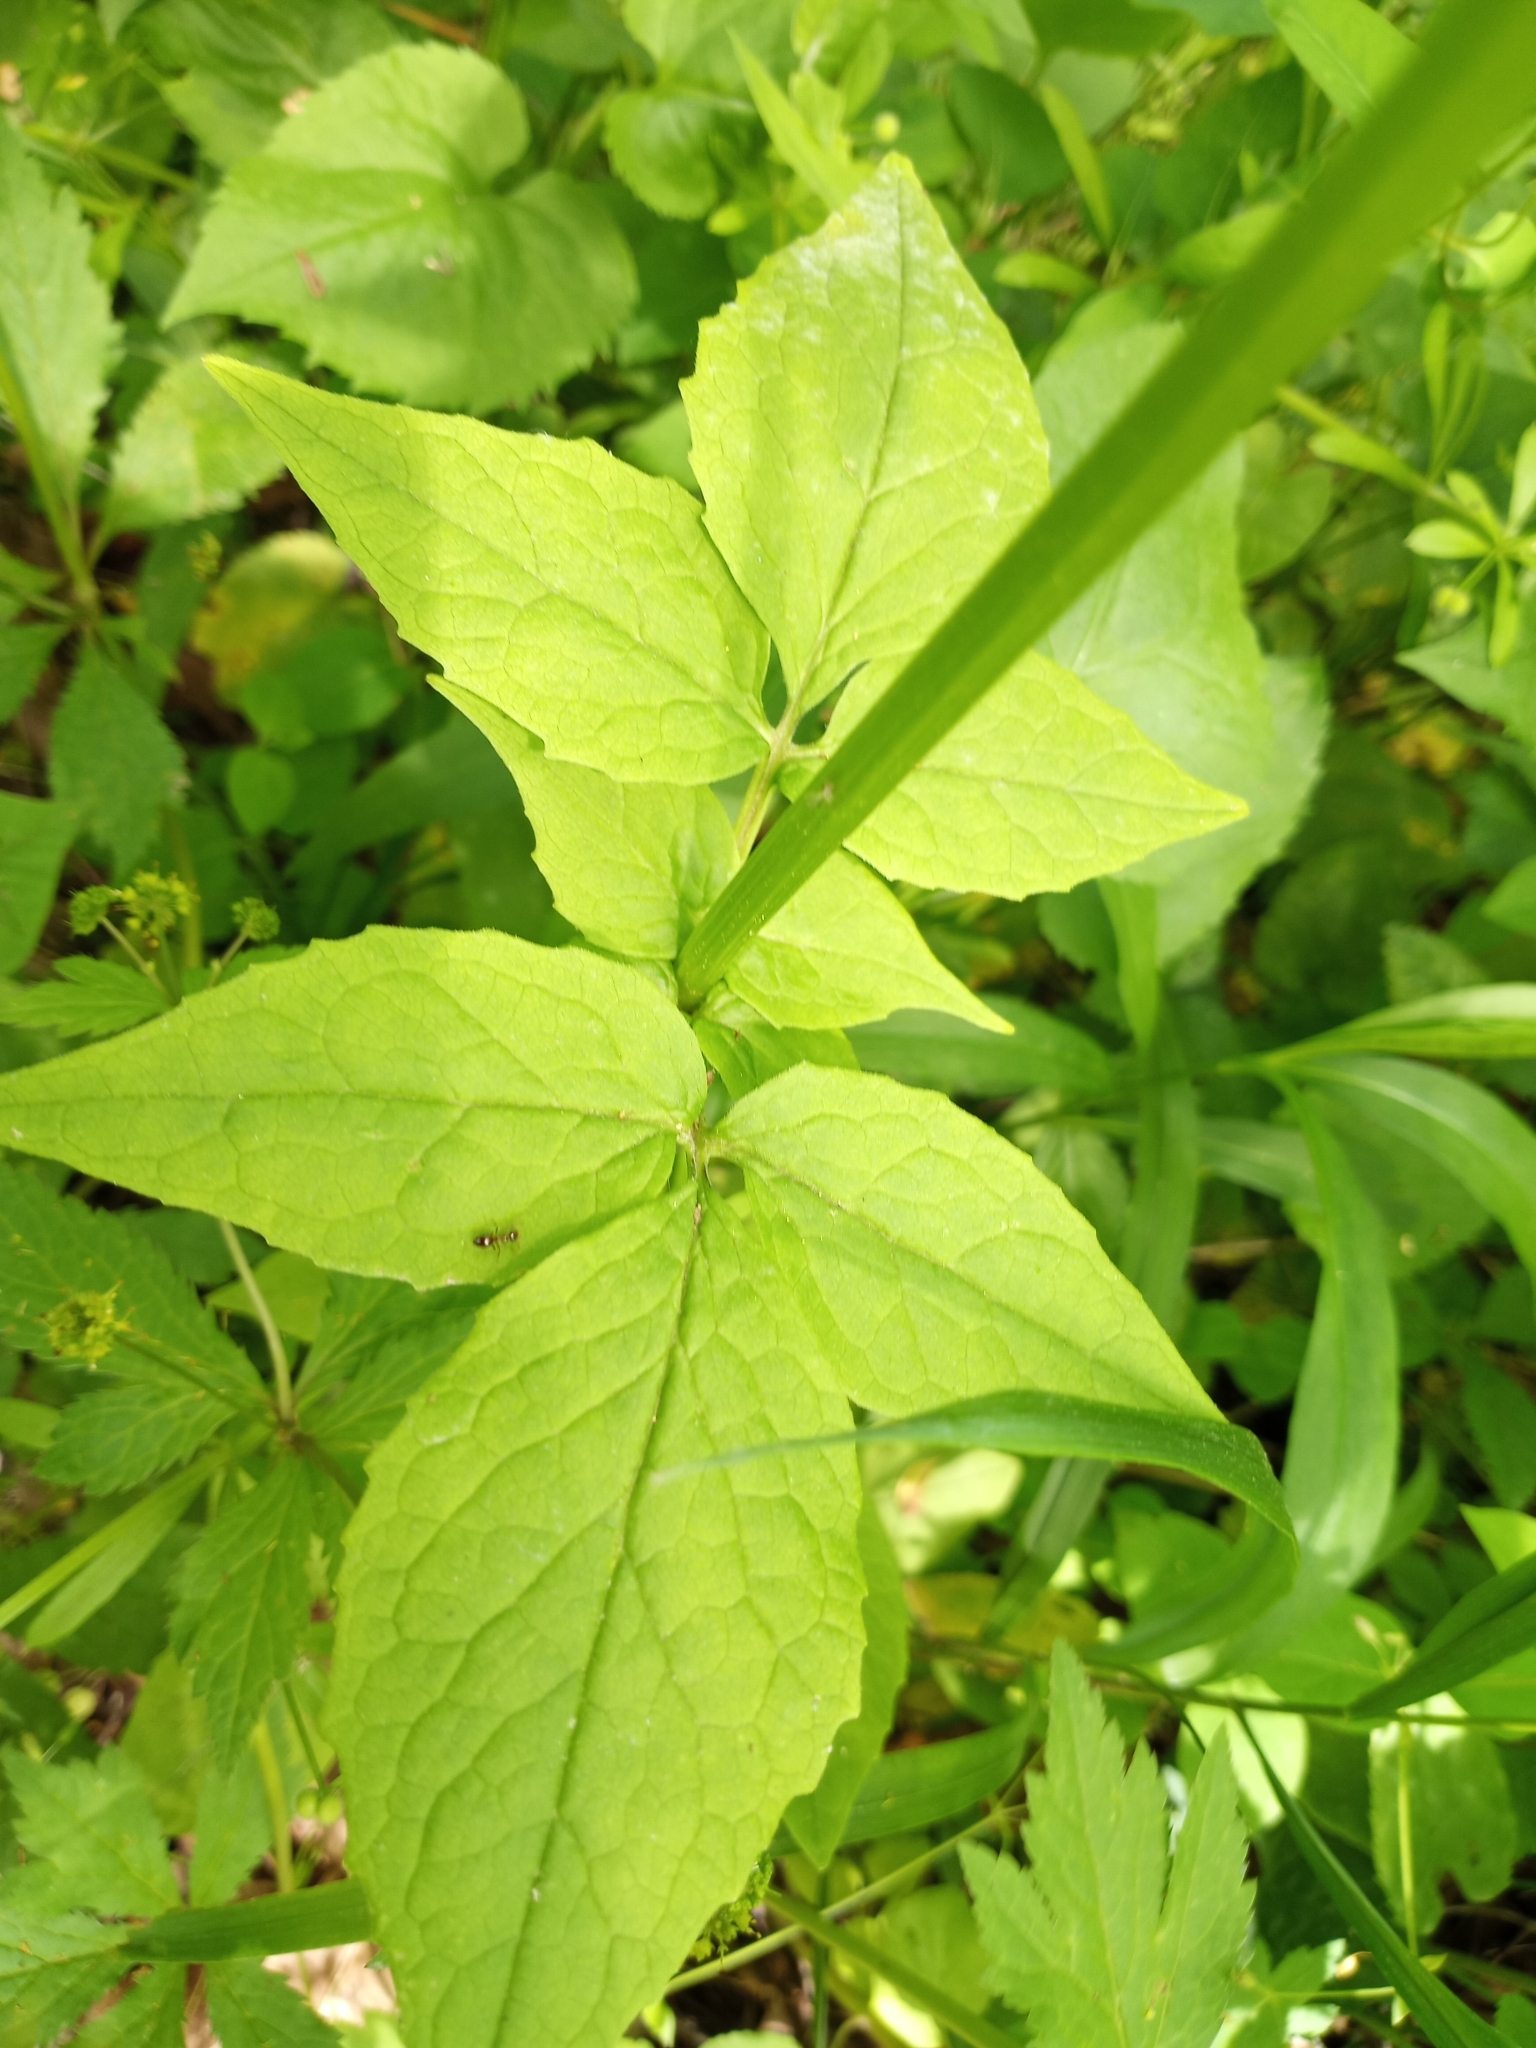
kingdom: Plantae
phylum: Tracheophyta
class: Magnoliopsida
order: Dipsacales
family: Caprifoliaceae
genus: Valeriana
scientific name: Valeriana pauciflora
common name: Long-tube valeriana
